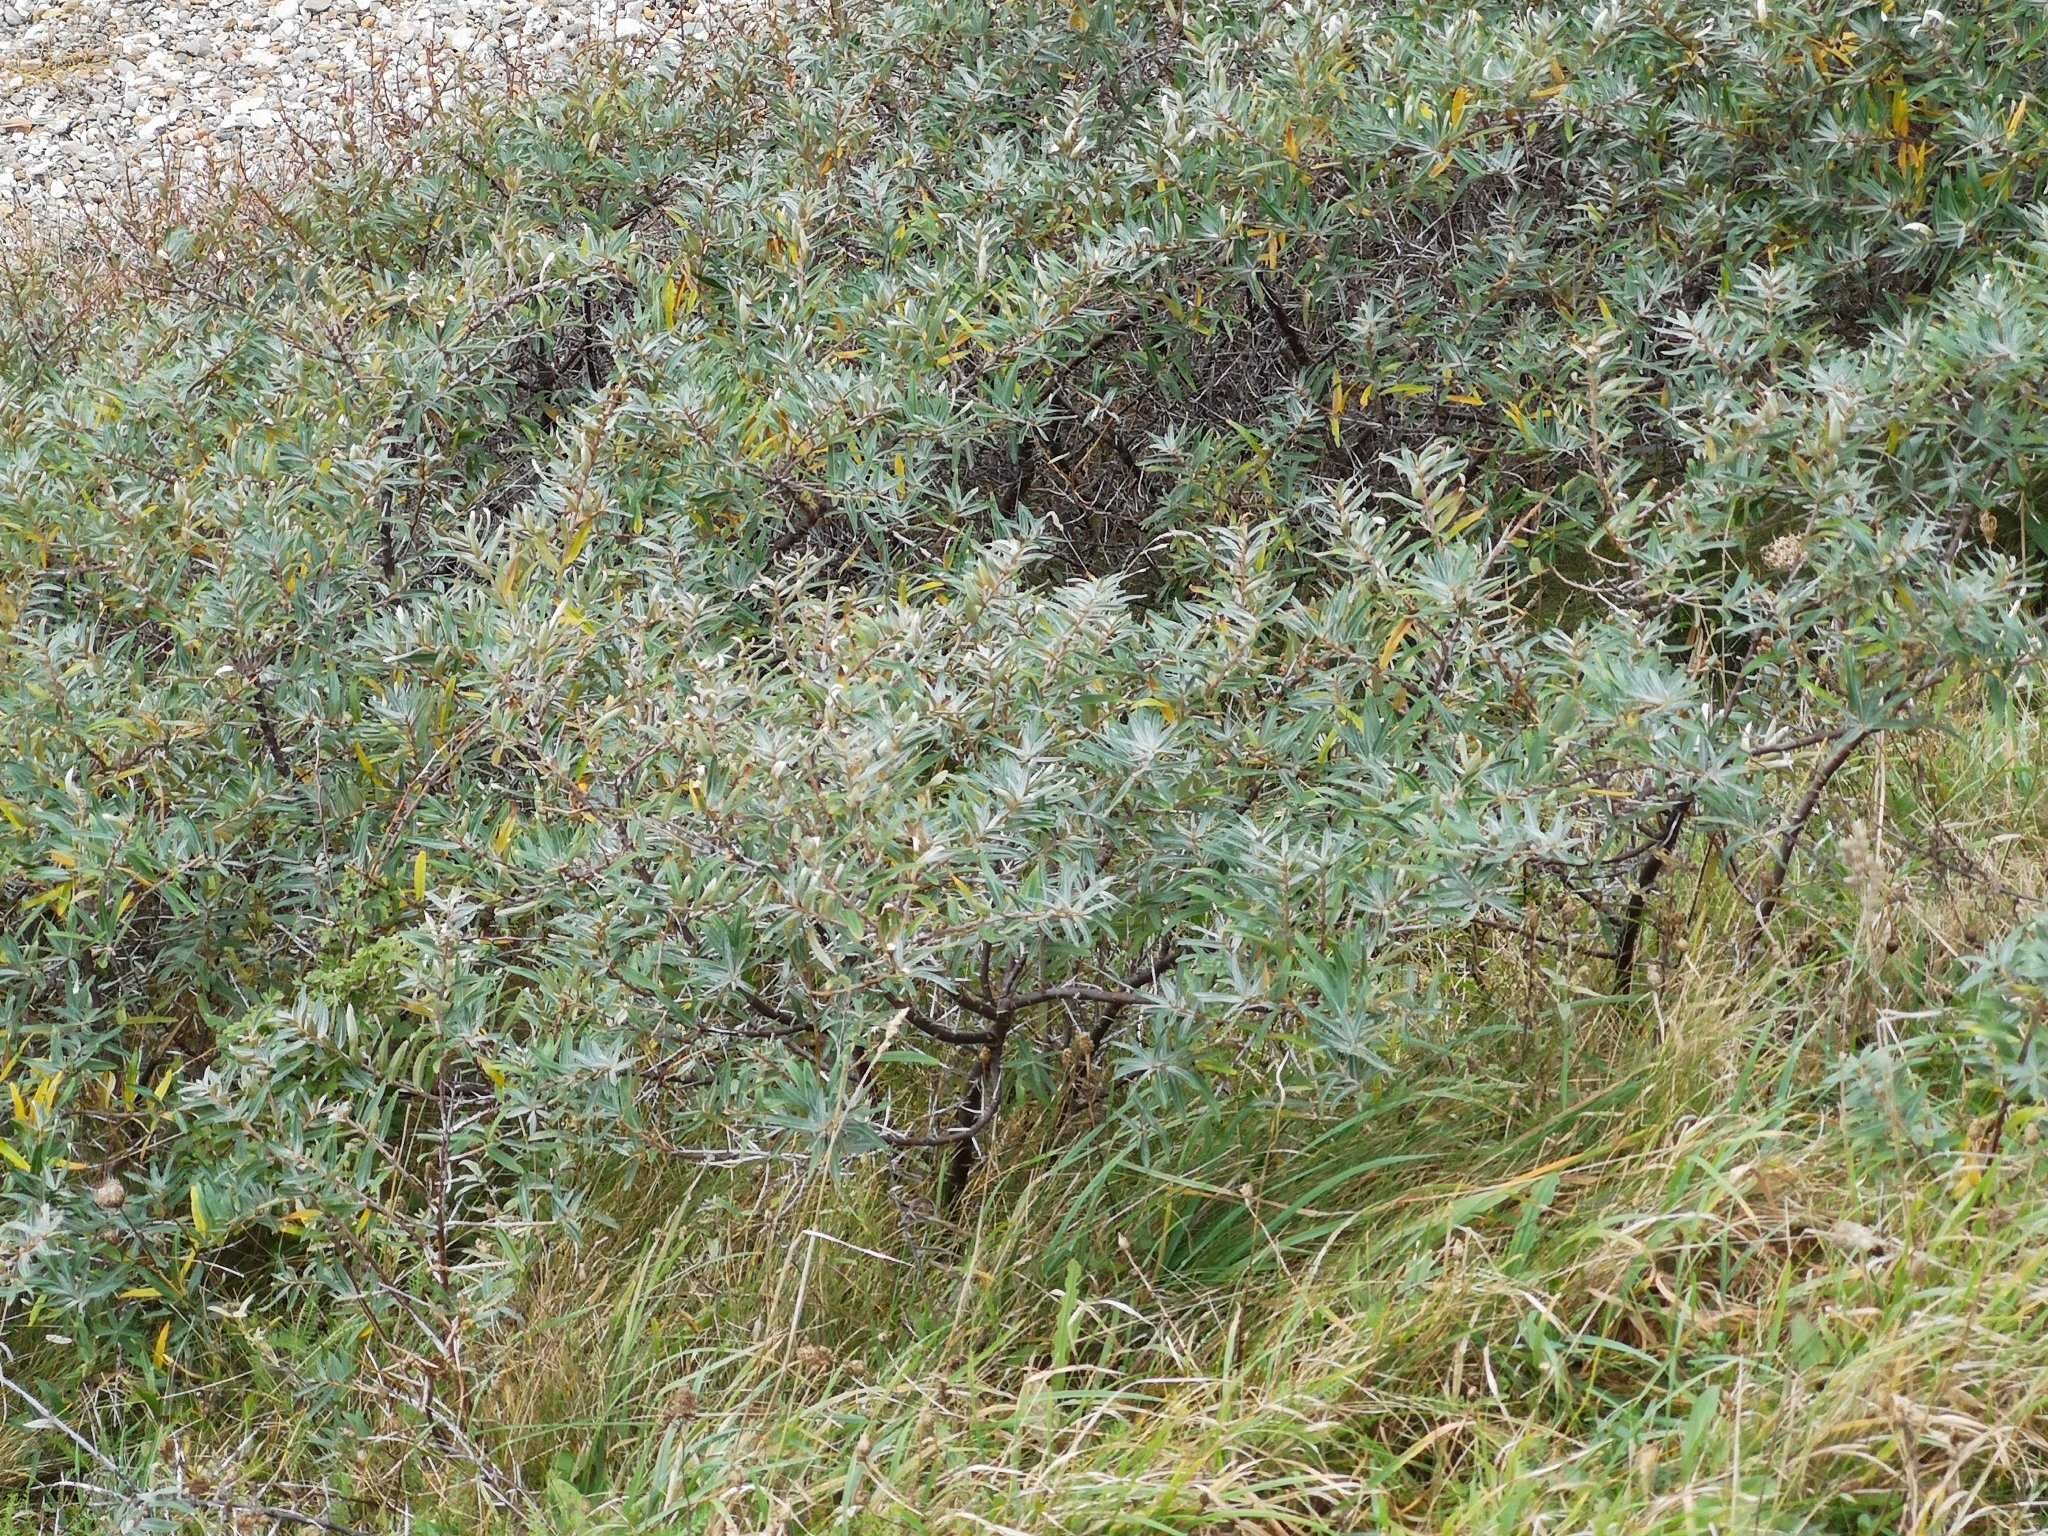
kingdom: Plantae
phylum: Tracheophyta
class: Magnoliopsida
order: Rosales
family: Elaeagnaceae
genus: Hippophae
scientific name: Hippophae rhamnoides
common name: Sea-buckthorn
